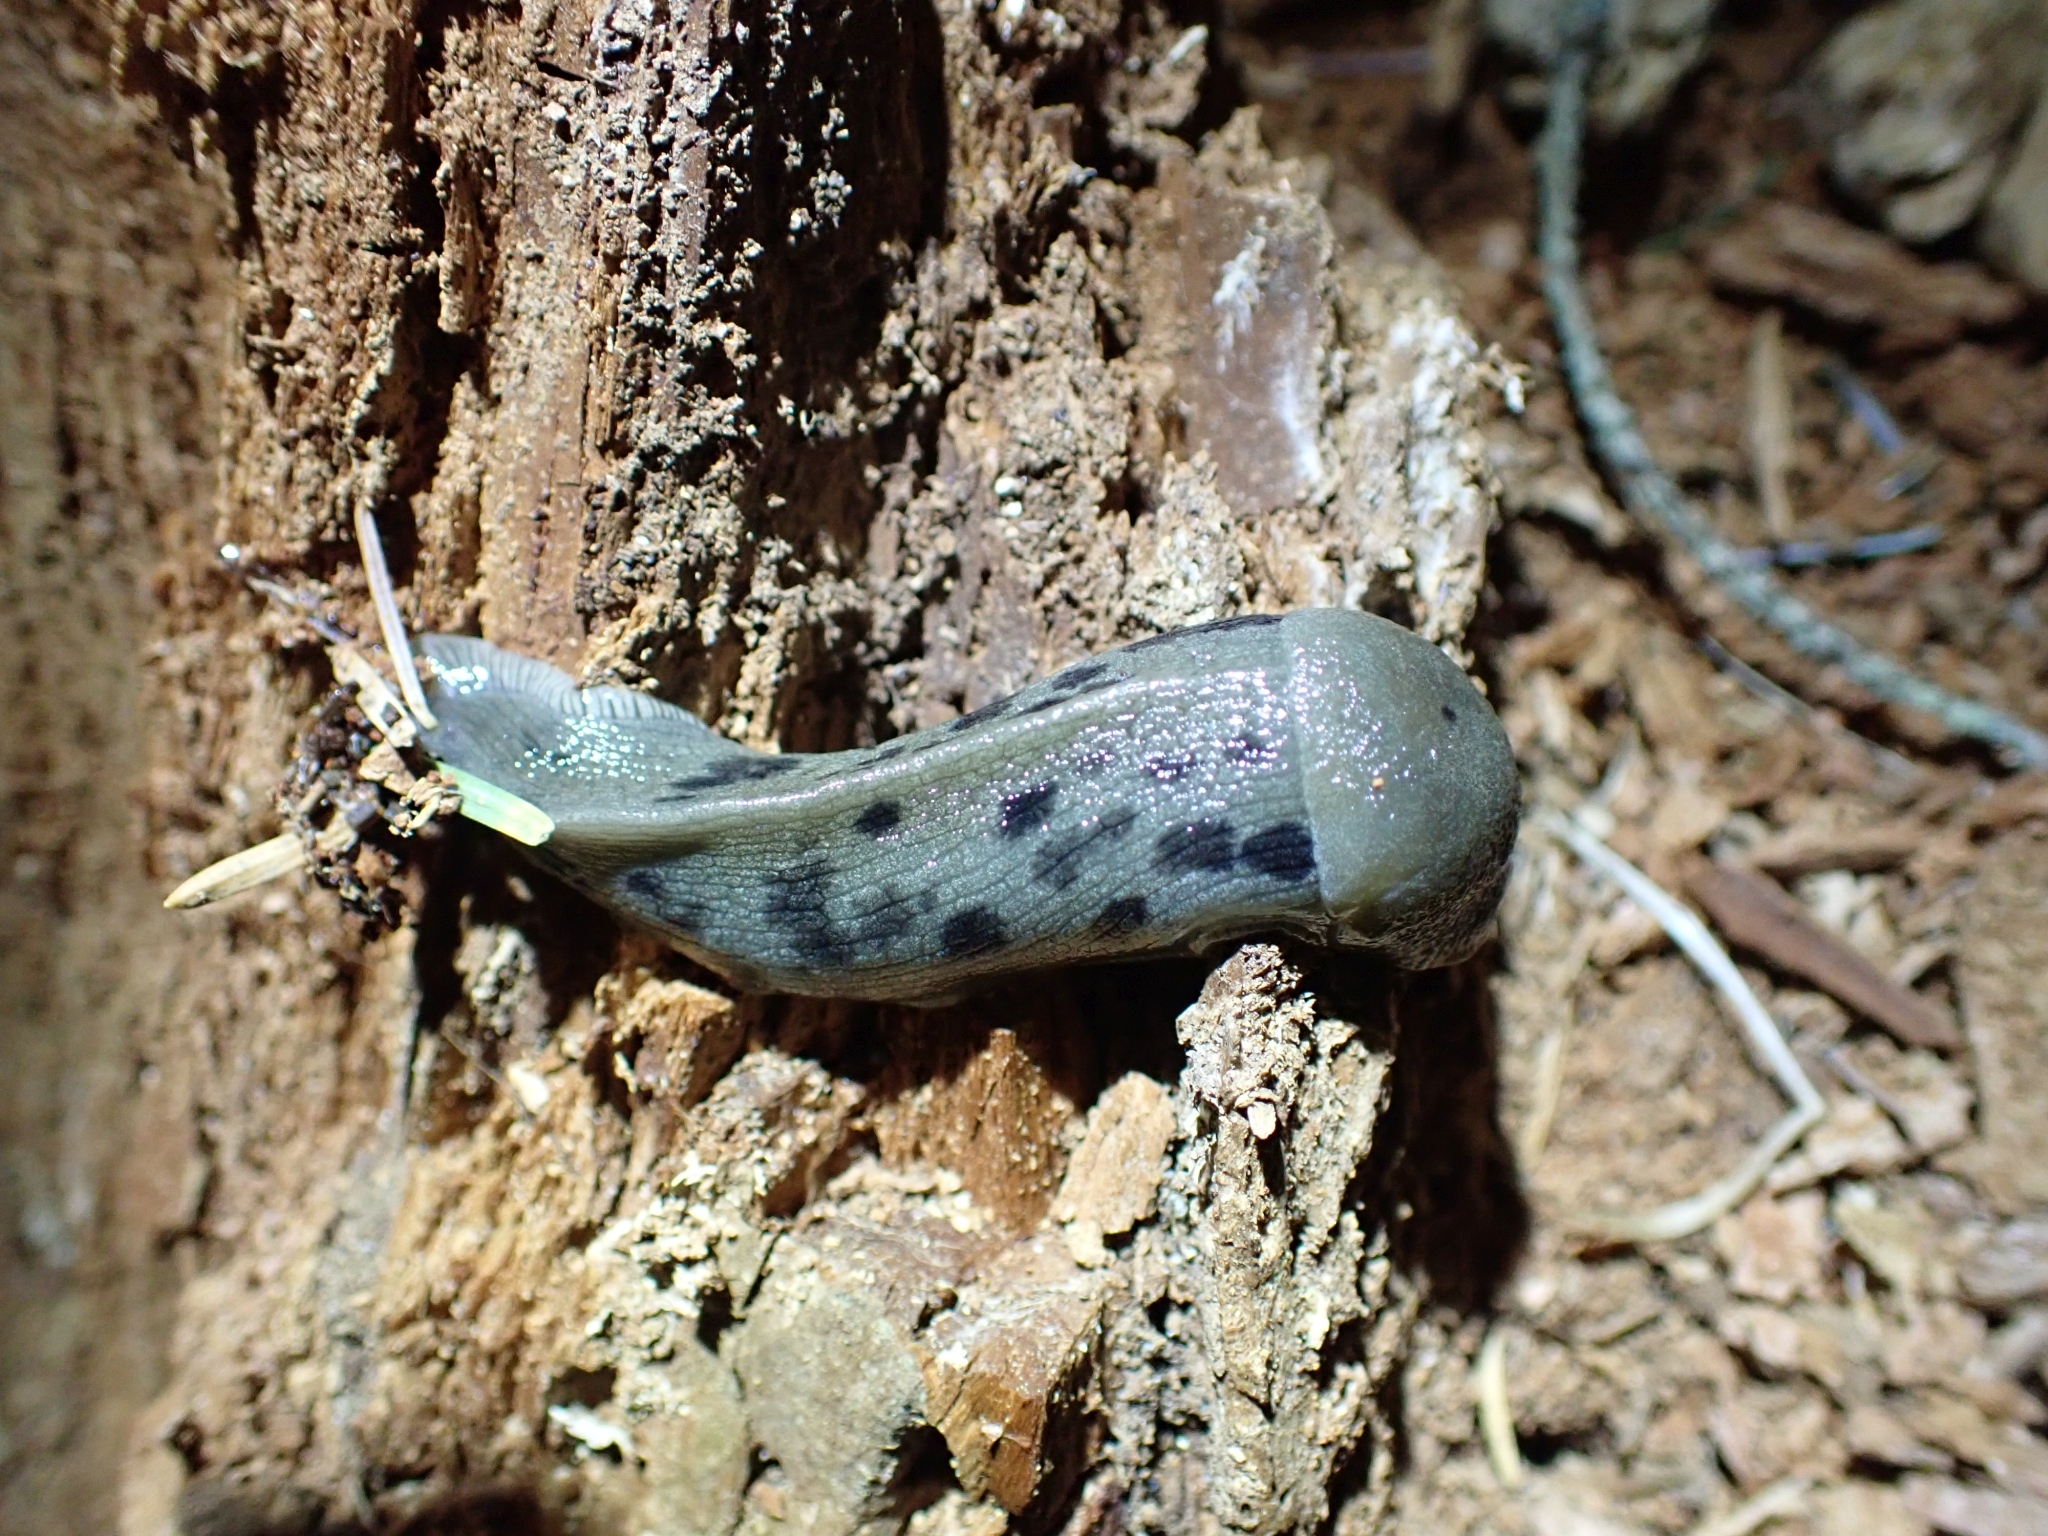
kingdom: Animalia
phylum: Mollusca
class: Gastropoda
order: Stylommatophora
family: Ariolimacidae
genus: Ariolimax
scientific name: Ariolimax columbianus
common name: Pacific banana slug
